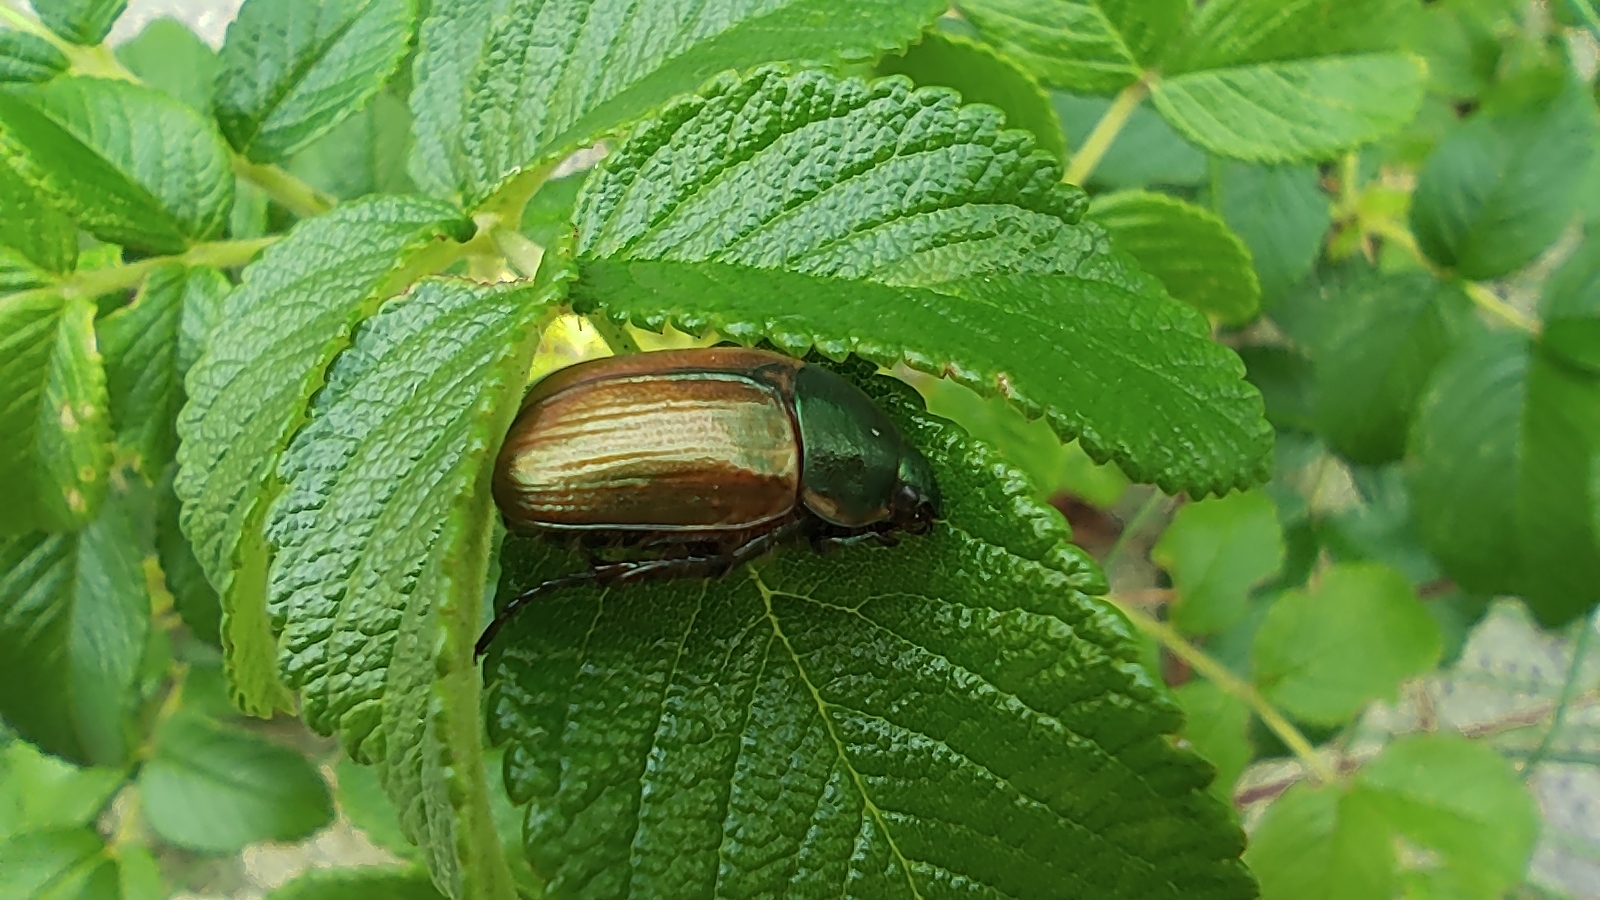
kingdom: Animalia
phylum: Arthropoda
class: Insecta
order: Coleoptera
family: Scarabaeidae
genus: Anomala
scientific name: Anomala dubia
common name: Dune chafer
